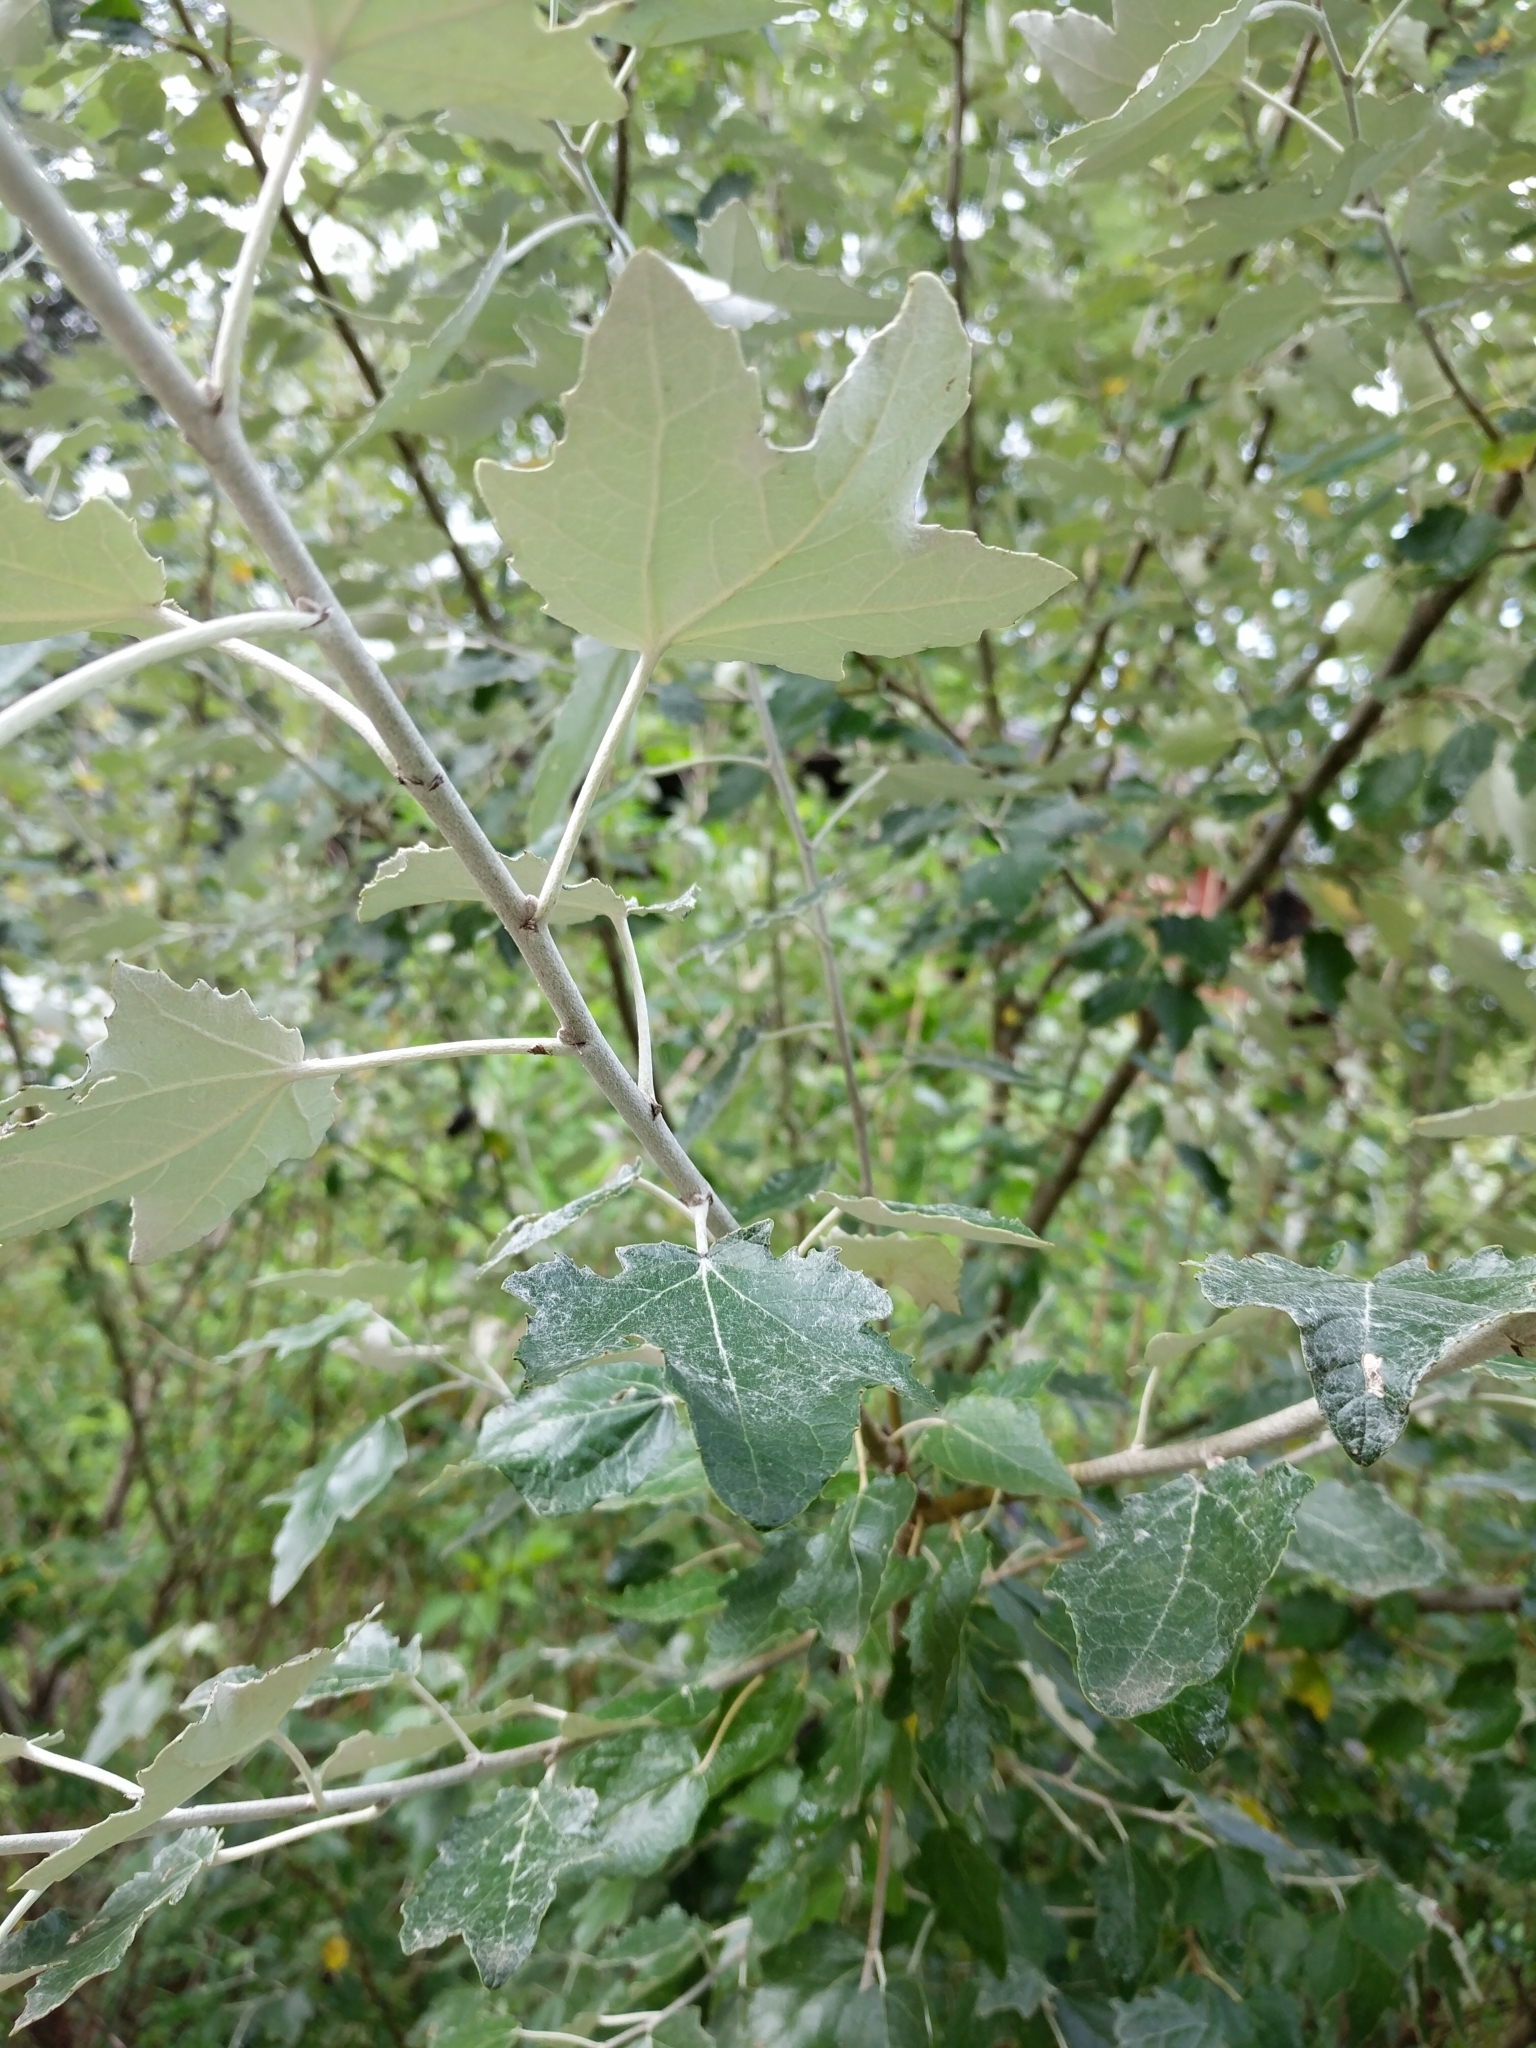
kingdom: Plantae
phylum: Tracheophyta
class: Magnoliopsida
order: Malpighiales
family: Salicaceae
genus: Populus
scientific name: Populus alba
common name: White poplar
